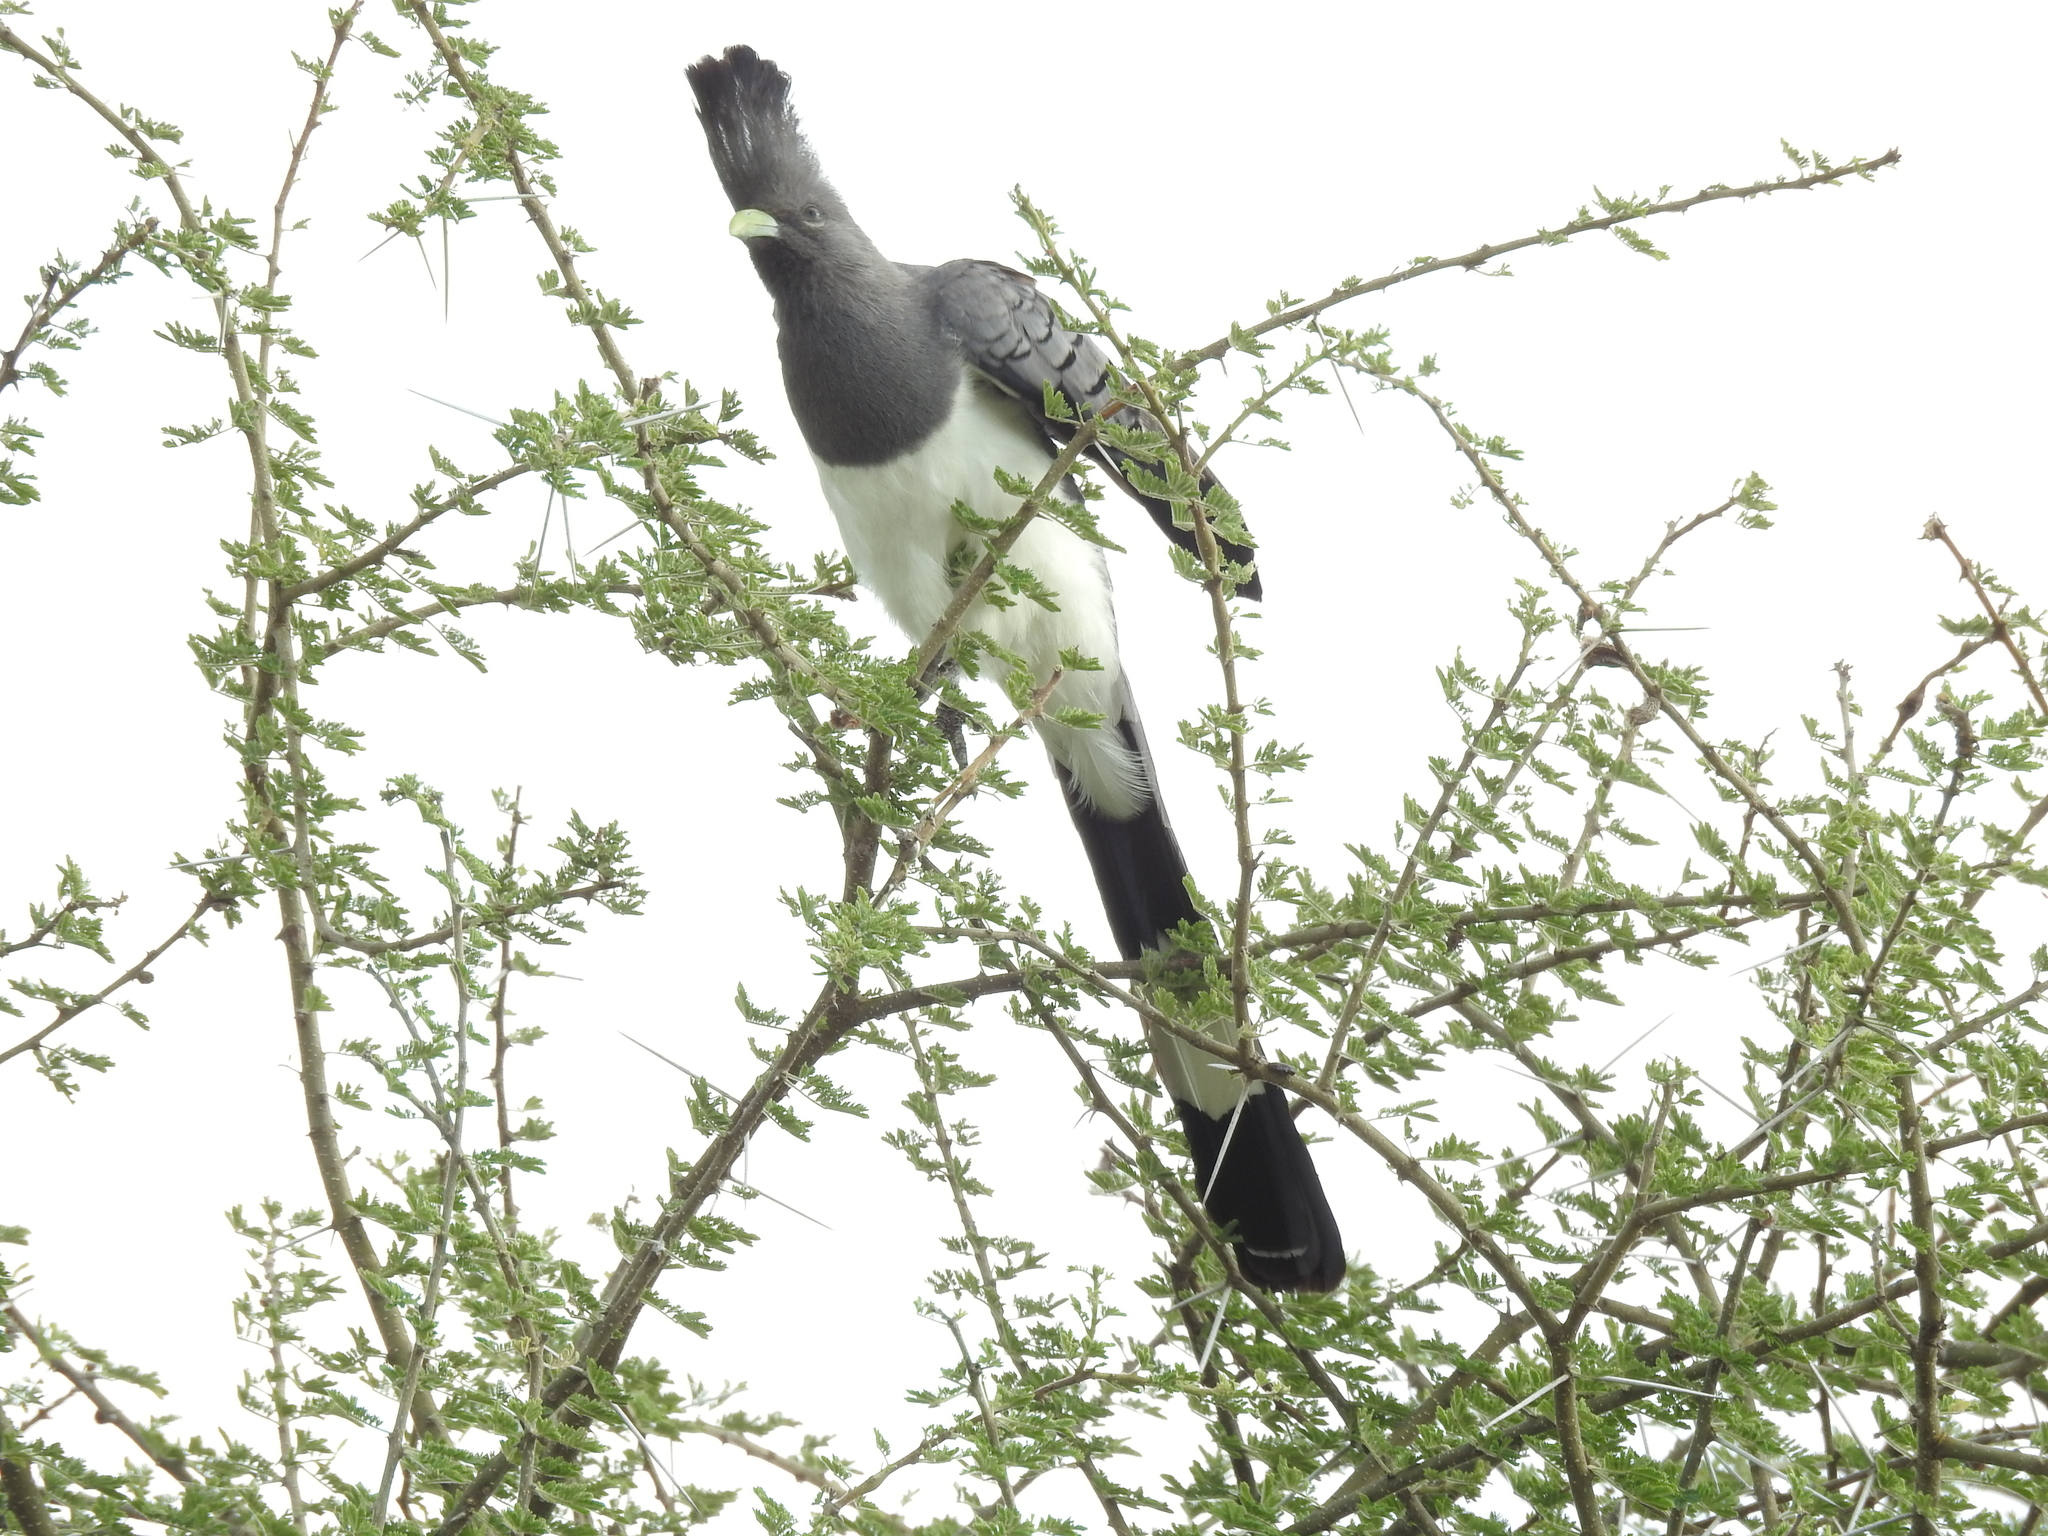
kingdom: Animalia
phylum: Chordata
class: Aves
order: Musophagiformes
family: Musophagidae
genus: Corythaixoides
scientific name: Corythaixoides leucogaster
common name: White-bellied go-away-bird
